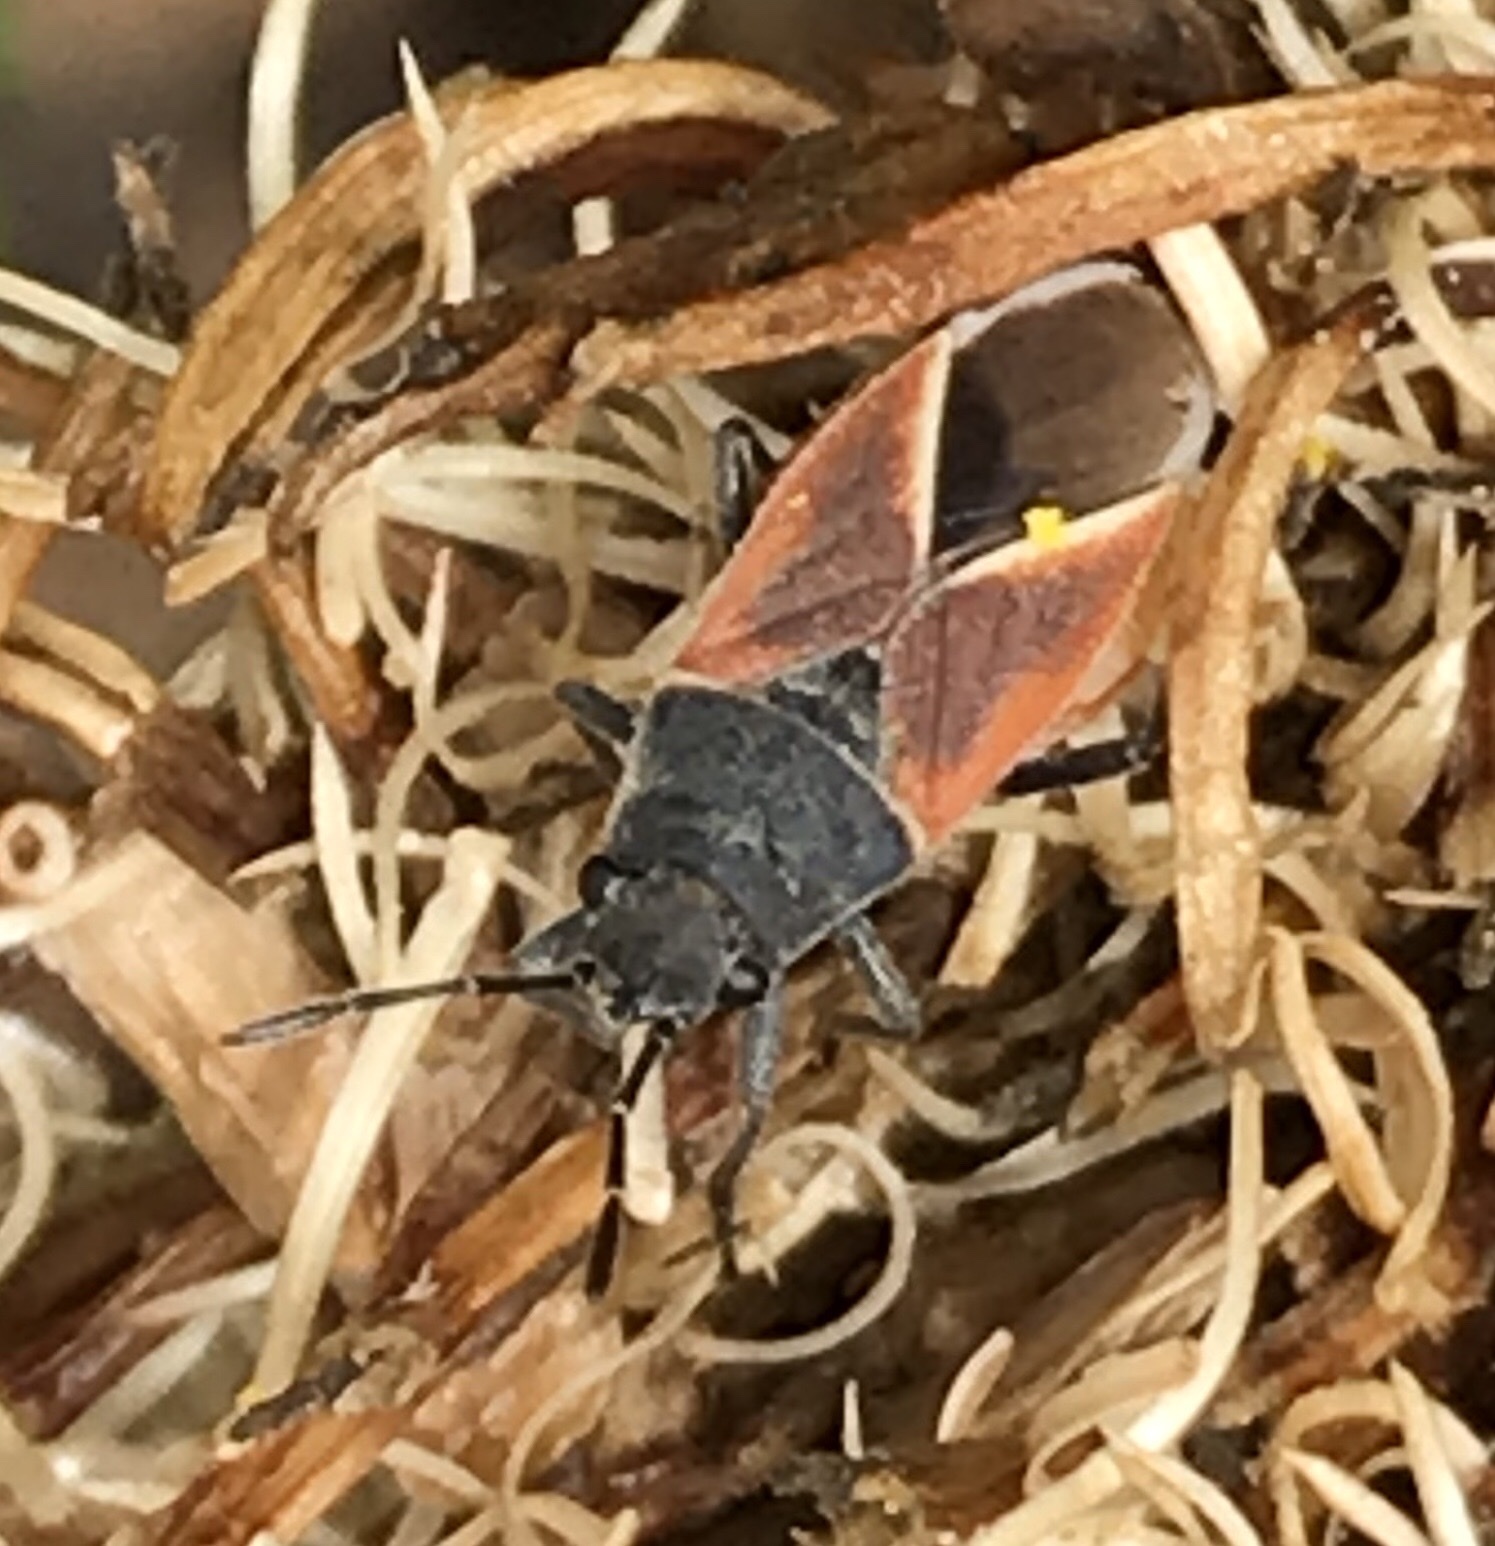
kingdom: Animalia
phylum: Arthropoda
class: Insecta
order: Hemiptera
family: Lygaeidae
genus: Melanopleurus
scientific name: Melanopleurus pyrrhopterus
